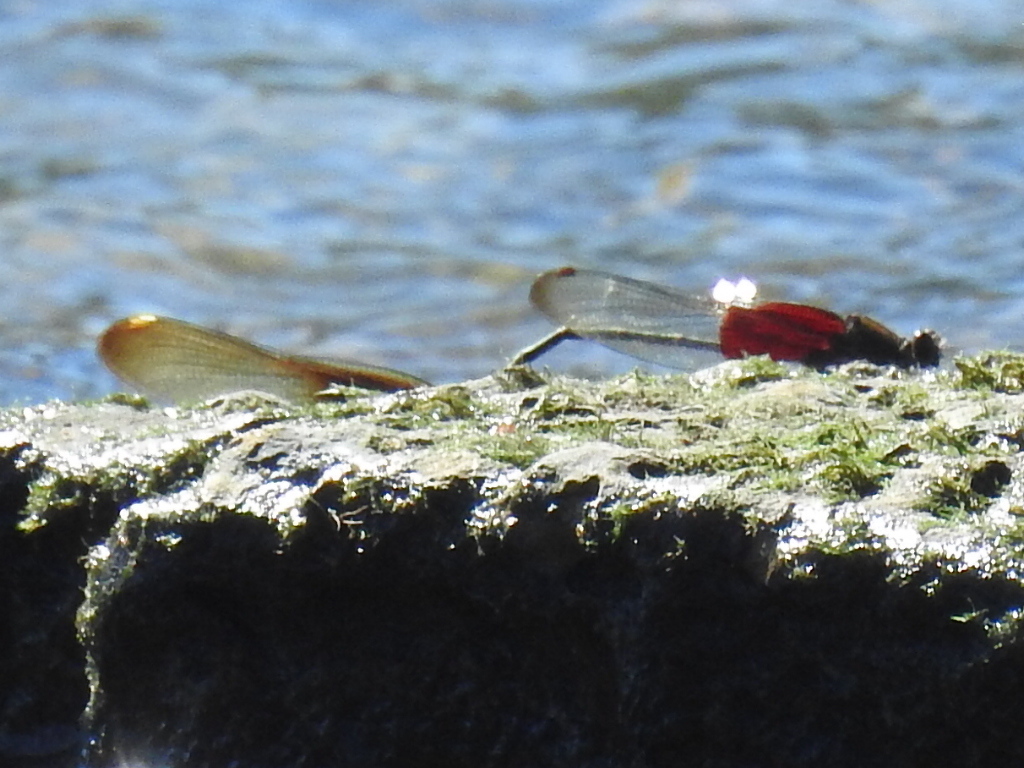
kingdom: Animalia
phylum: Arthropoda
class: Insecta
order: Odonata
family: Calopterygidae
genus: Hetaerina
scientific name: Hetaerina americana
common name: American rubyspot
